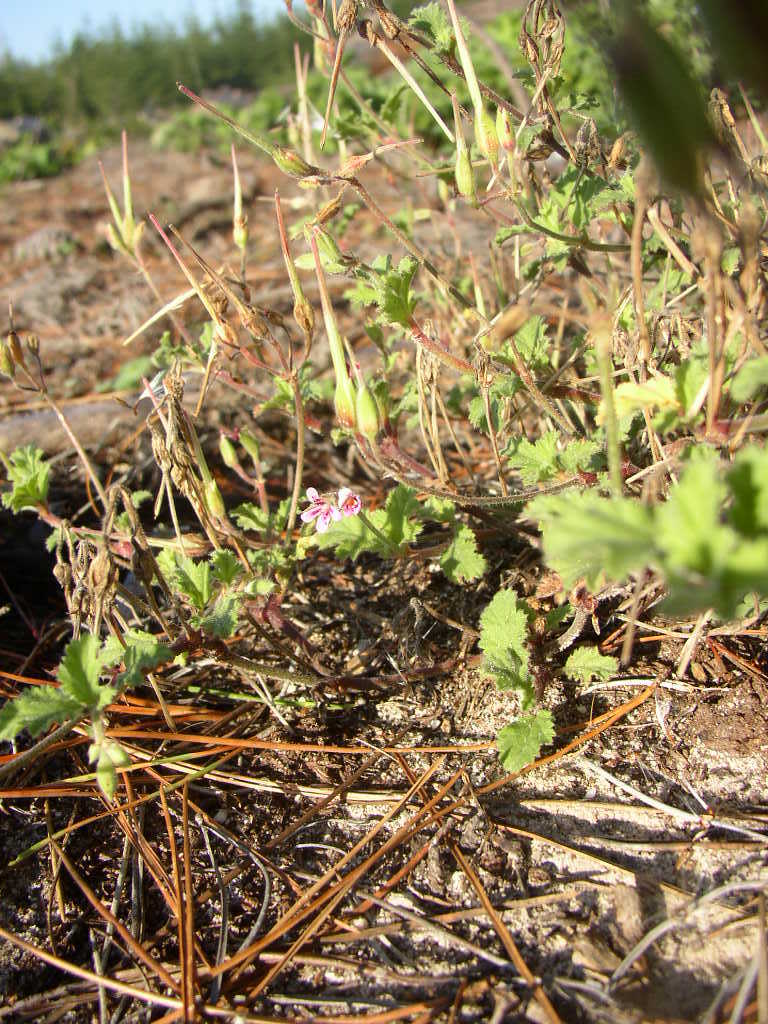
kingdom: Plantae
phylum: Tracheophyta
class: Magnoliopsida
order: Geraniales
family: Geraniaceae
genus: Pelargonium
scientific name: Pelargonium althaeoides
